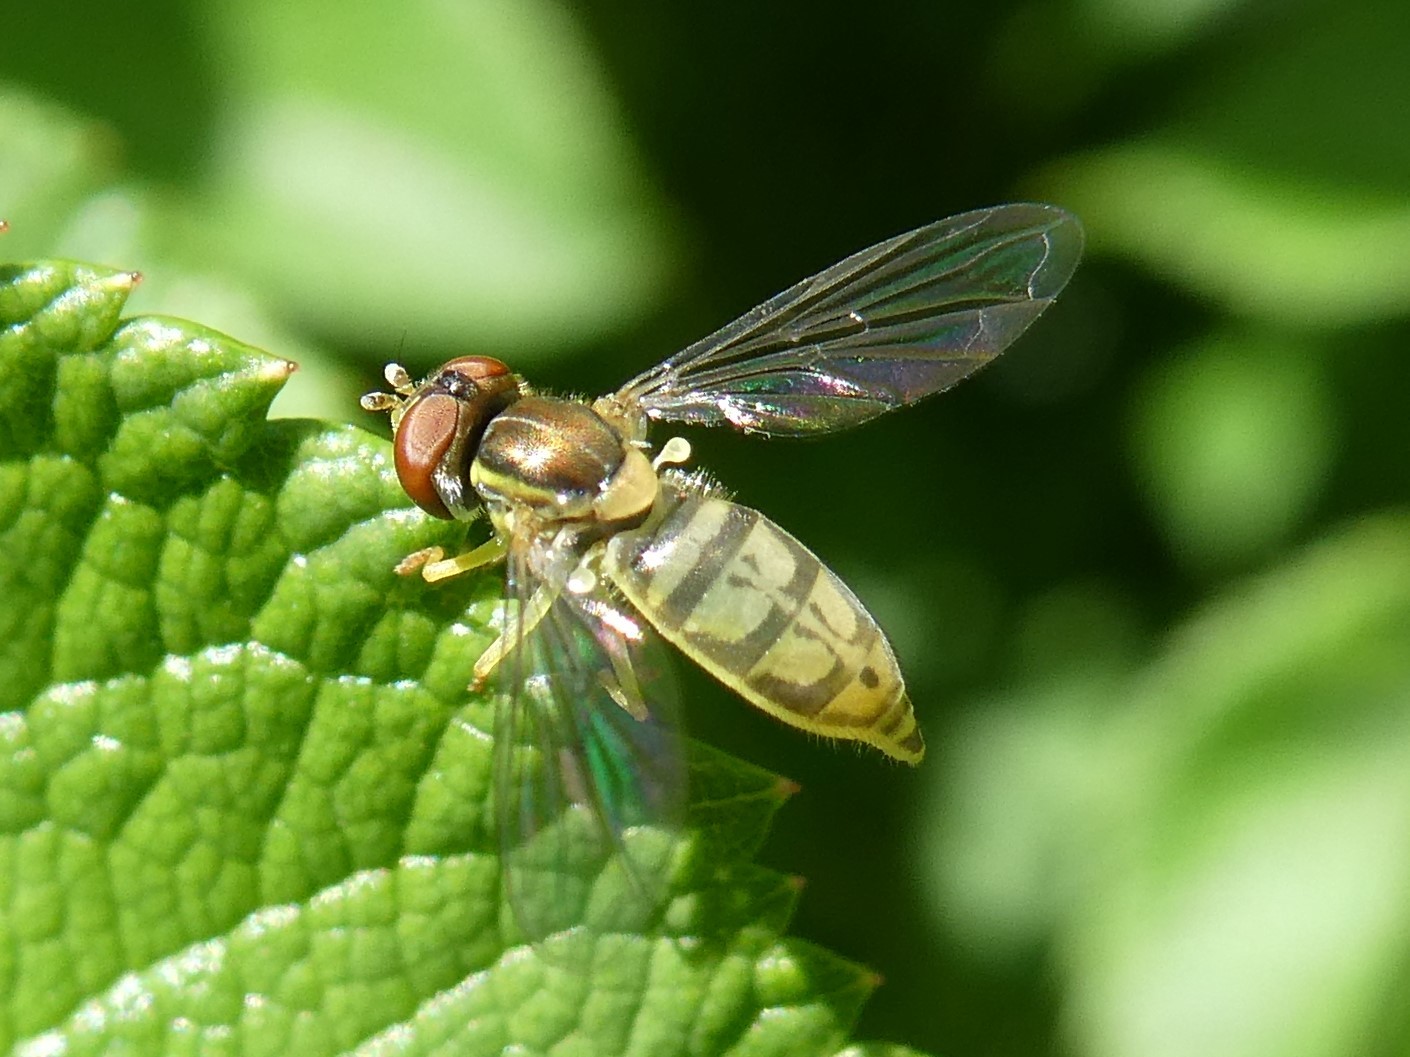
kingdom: Animalia
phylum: Arthropoda
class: Insecta
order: Diptera
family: Syrphidae
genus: Toxomerus
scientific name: Toxomerus marginatus
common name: Syrphid fly
